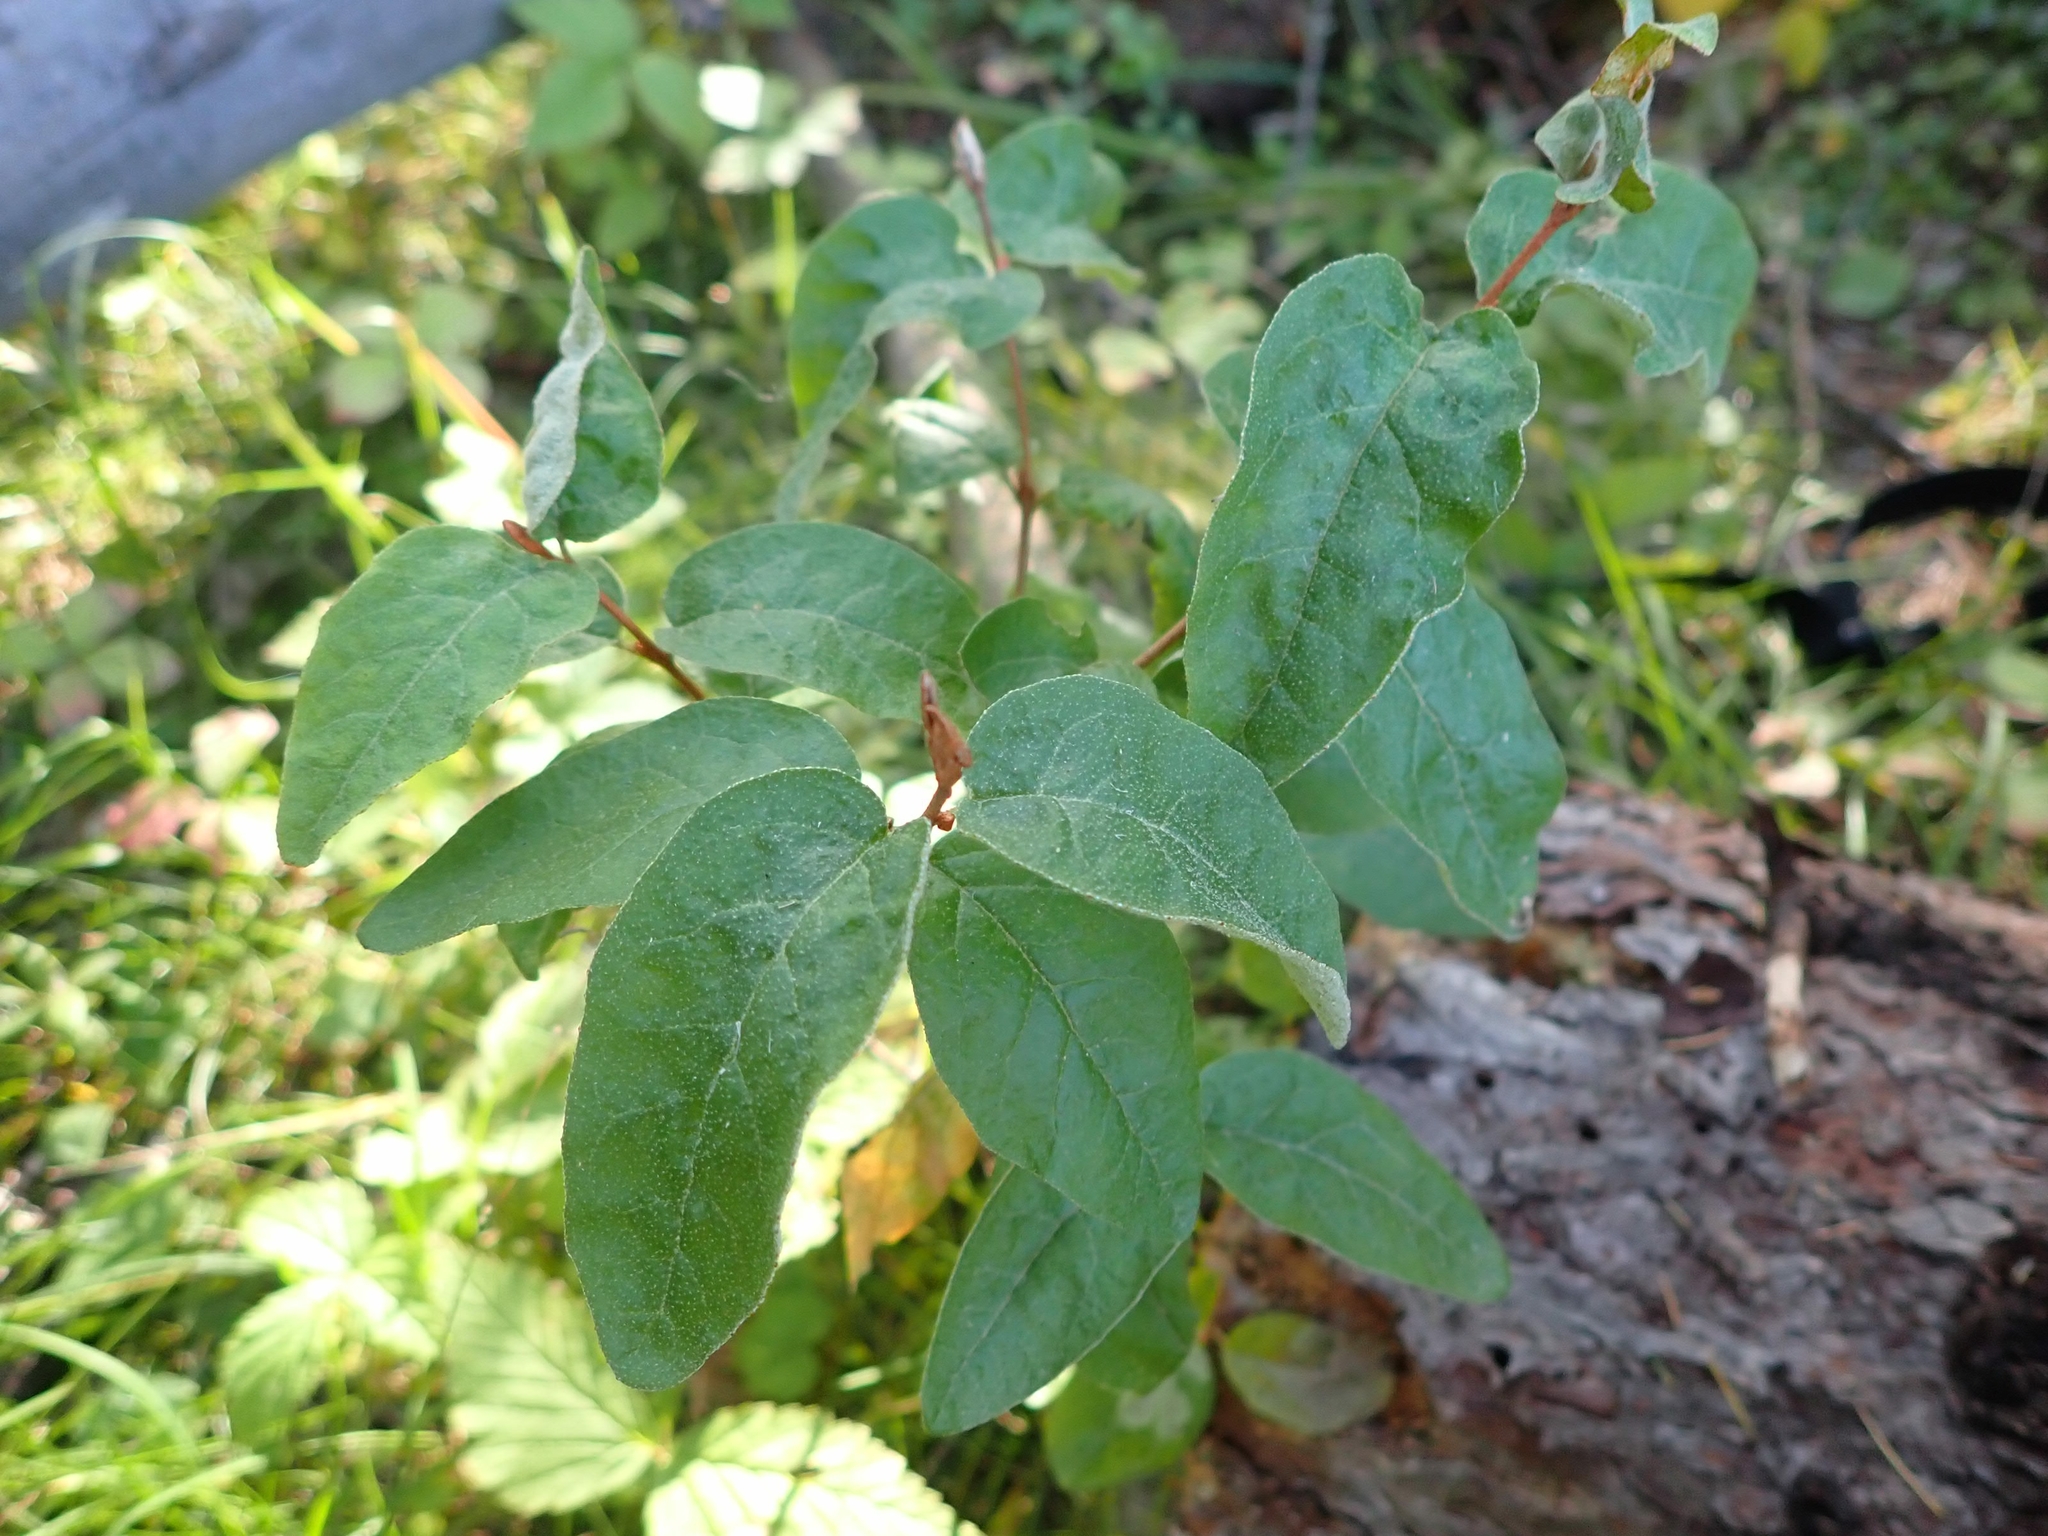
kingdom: Plantae
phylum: Tracheophyta
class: Magnoliopsida
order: Rosales
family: Elaeagnaceae
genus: Shepherdia
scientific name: Shepherdia canadensis
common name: Soapberry
